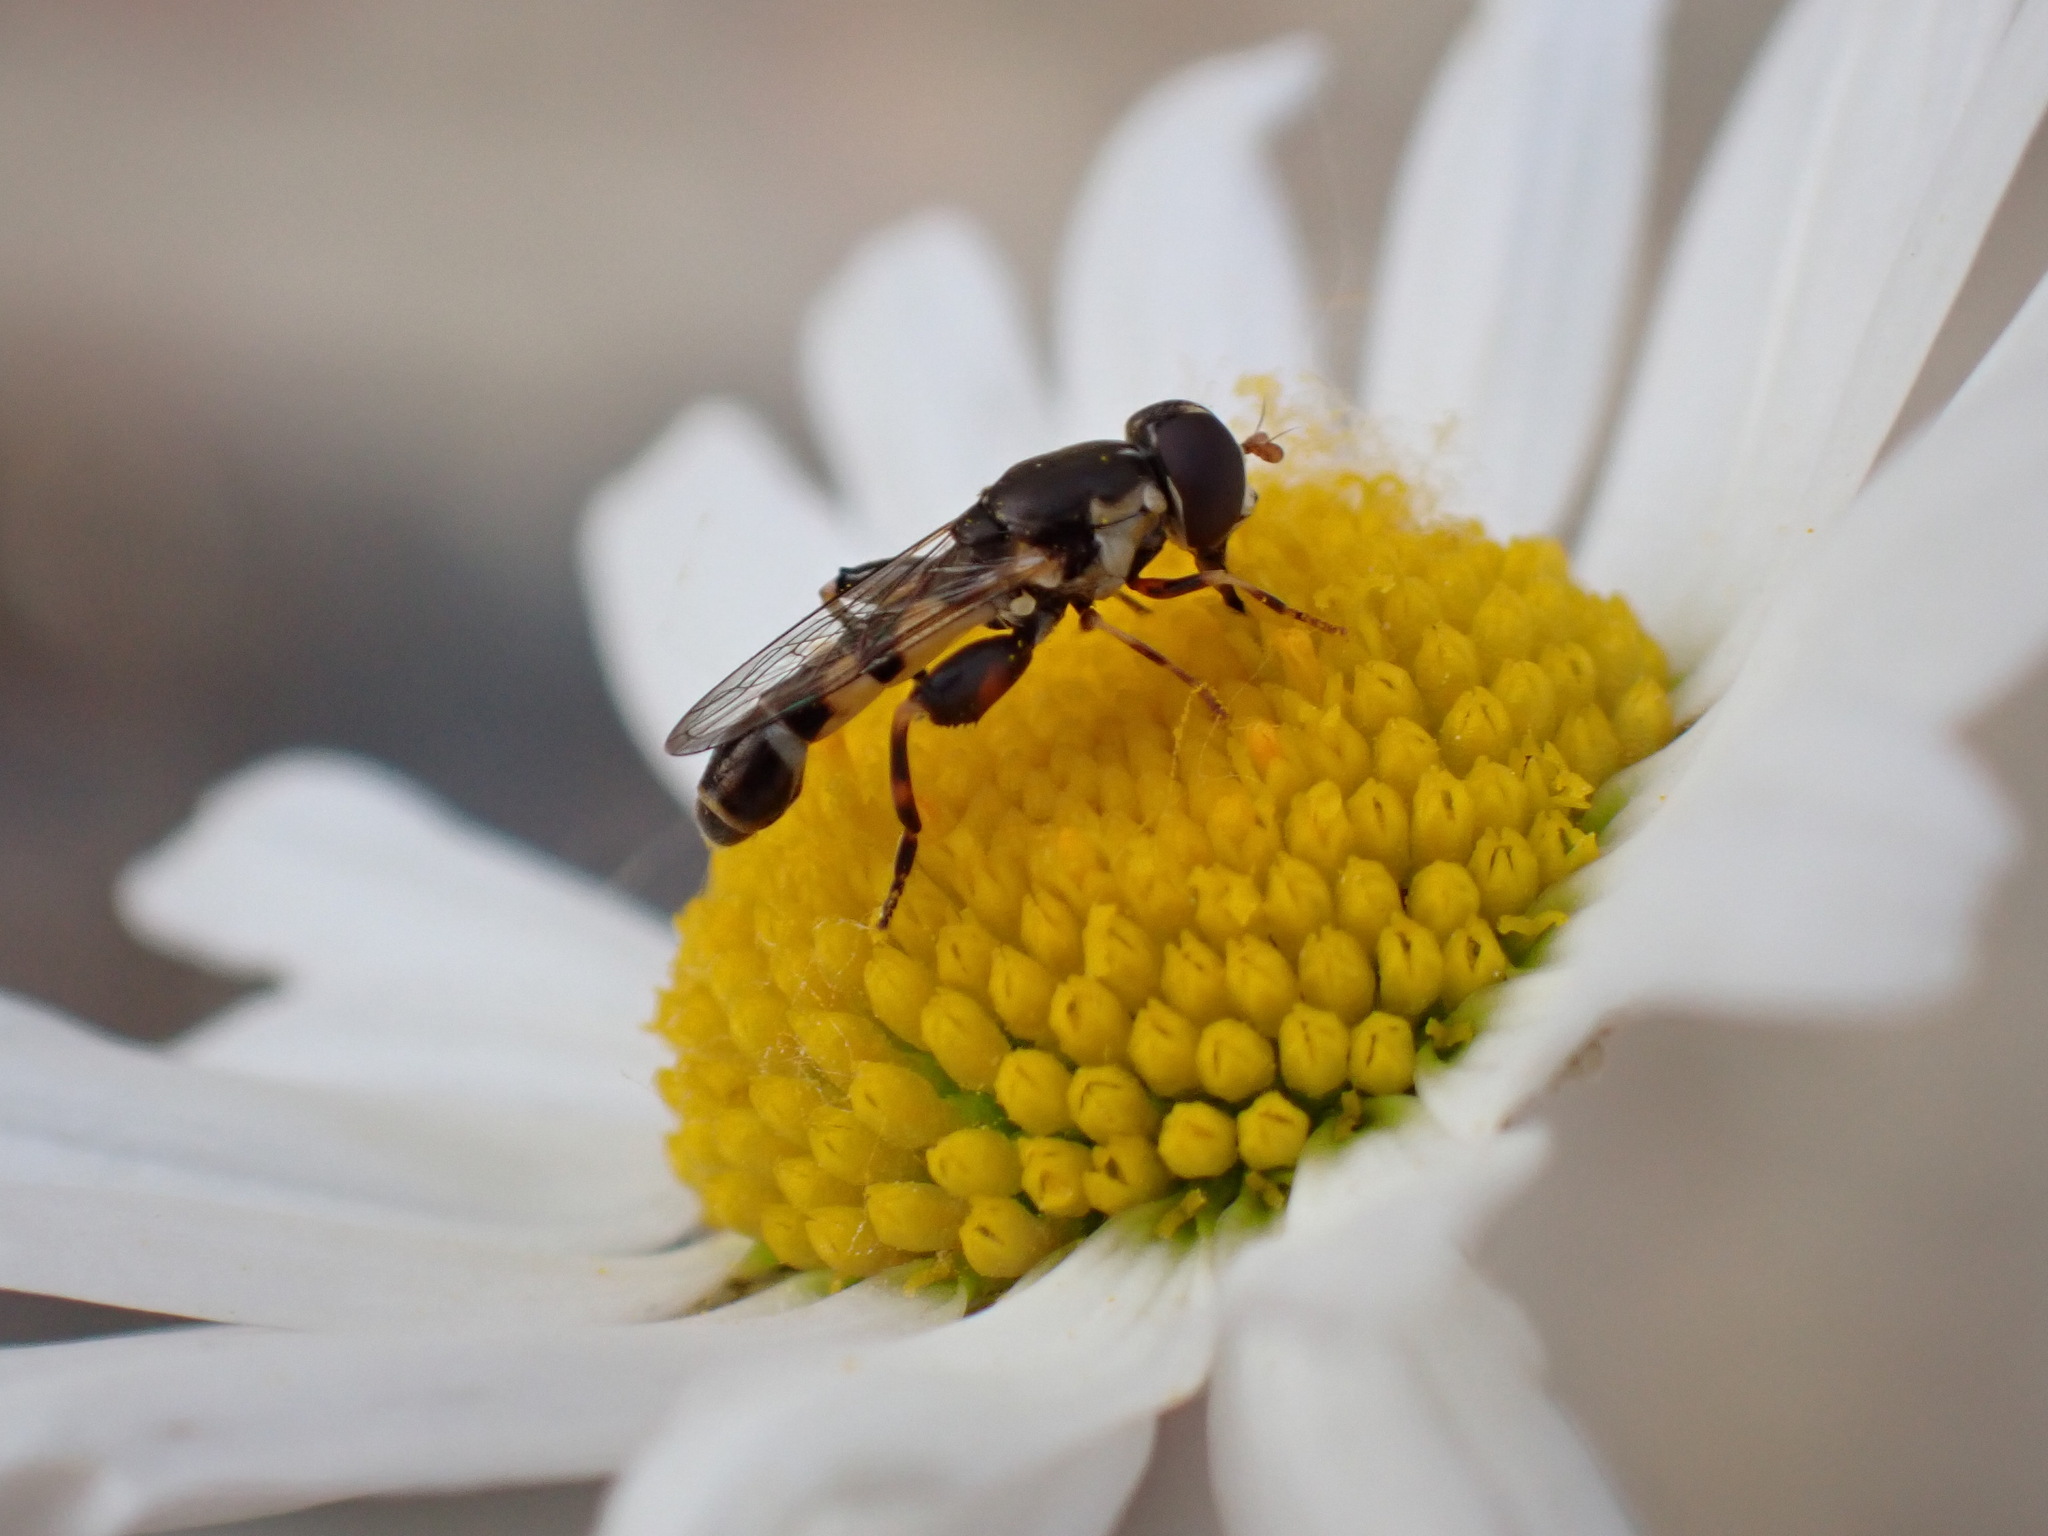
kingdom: Animalia
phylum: Arthropoda
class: Insecta
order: Diptera
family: Syrphidae
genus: Syritta
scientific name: Syritta pipiens
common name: Hover fly
